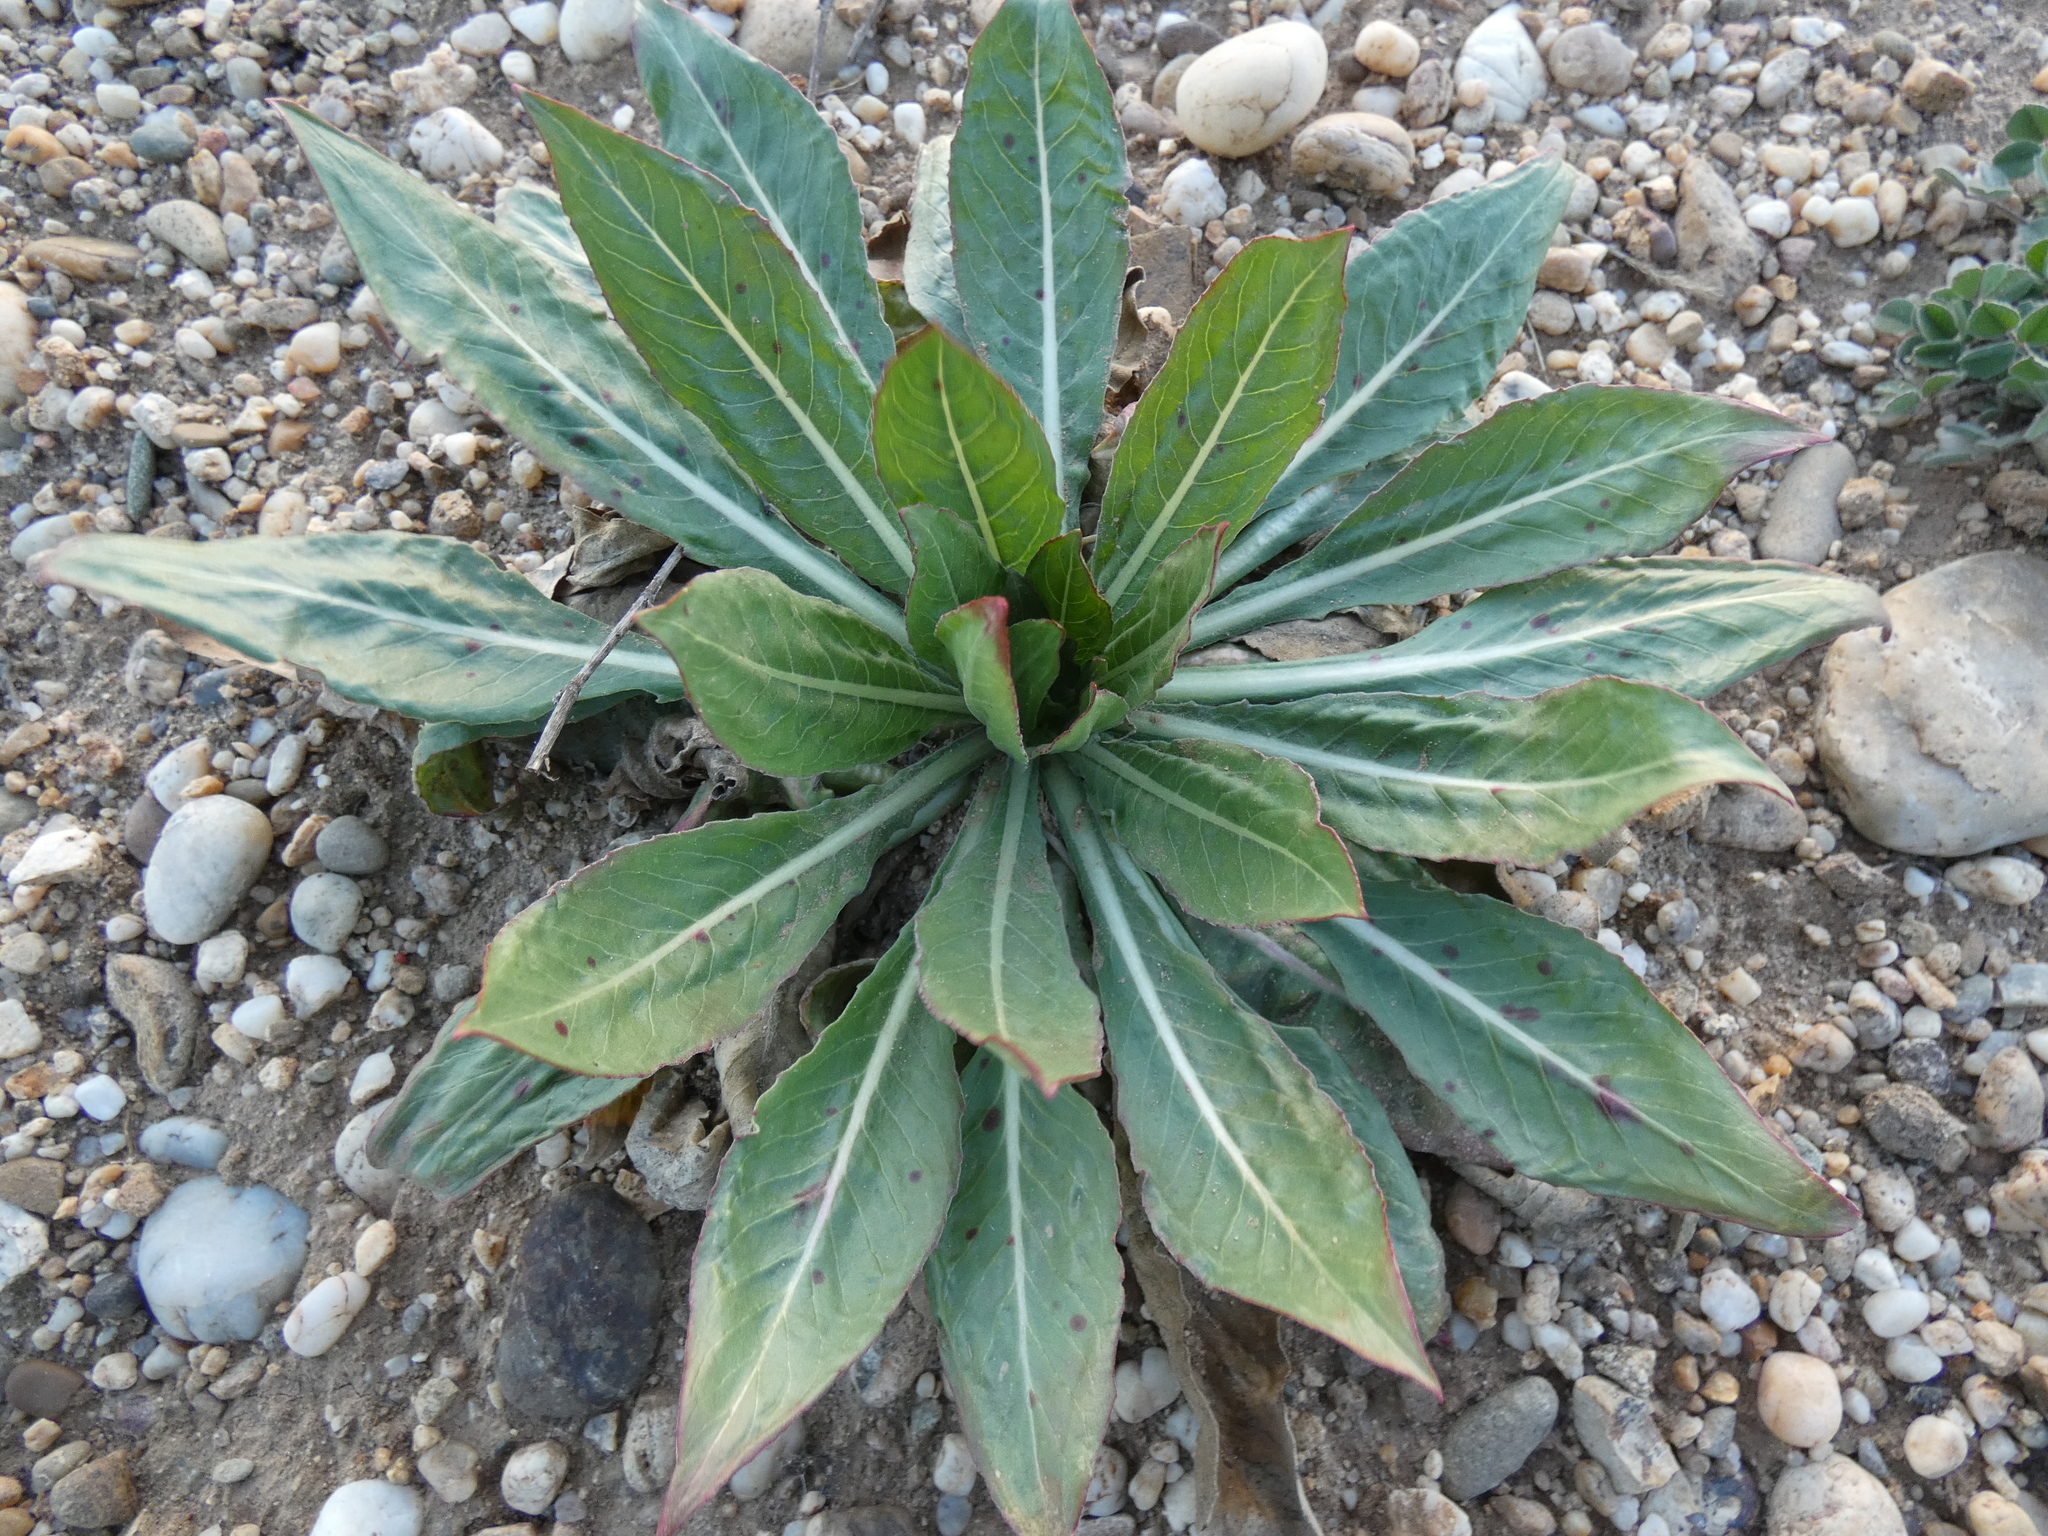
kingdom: Plantae
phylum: Tracheophyta
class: Magnoliopsida
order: Myrtales
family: Onagraceae
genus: Oenothera
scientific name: Oenothera
